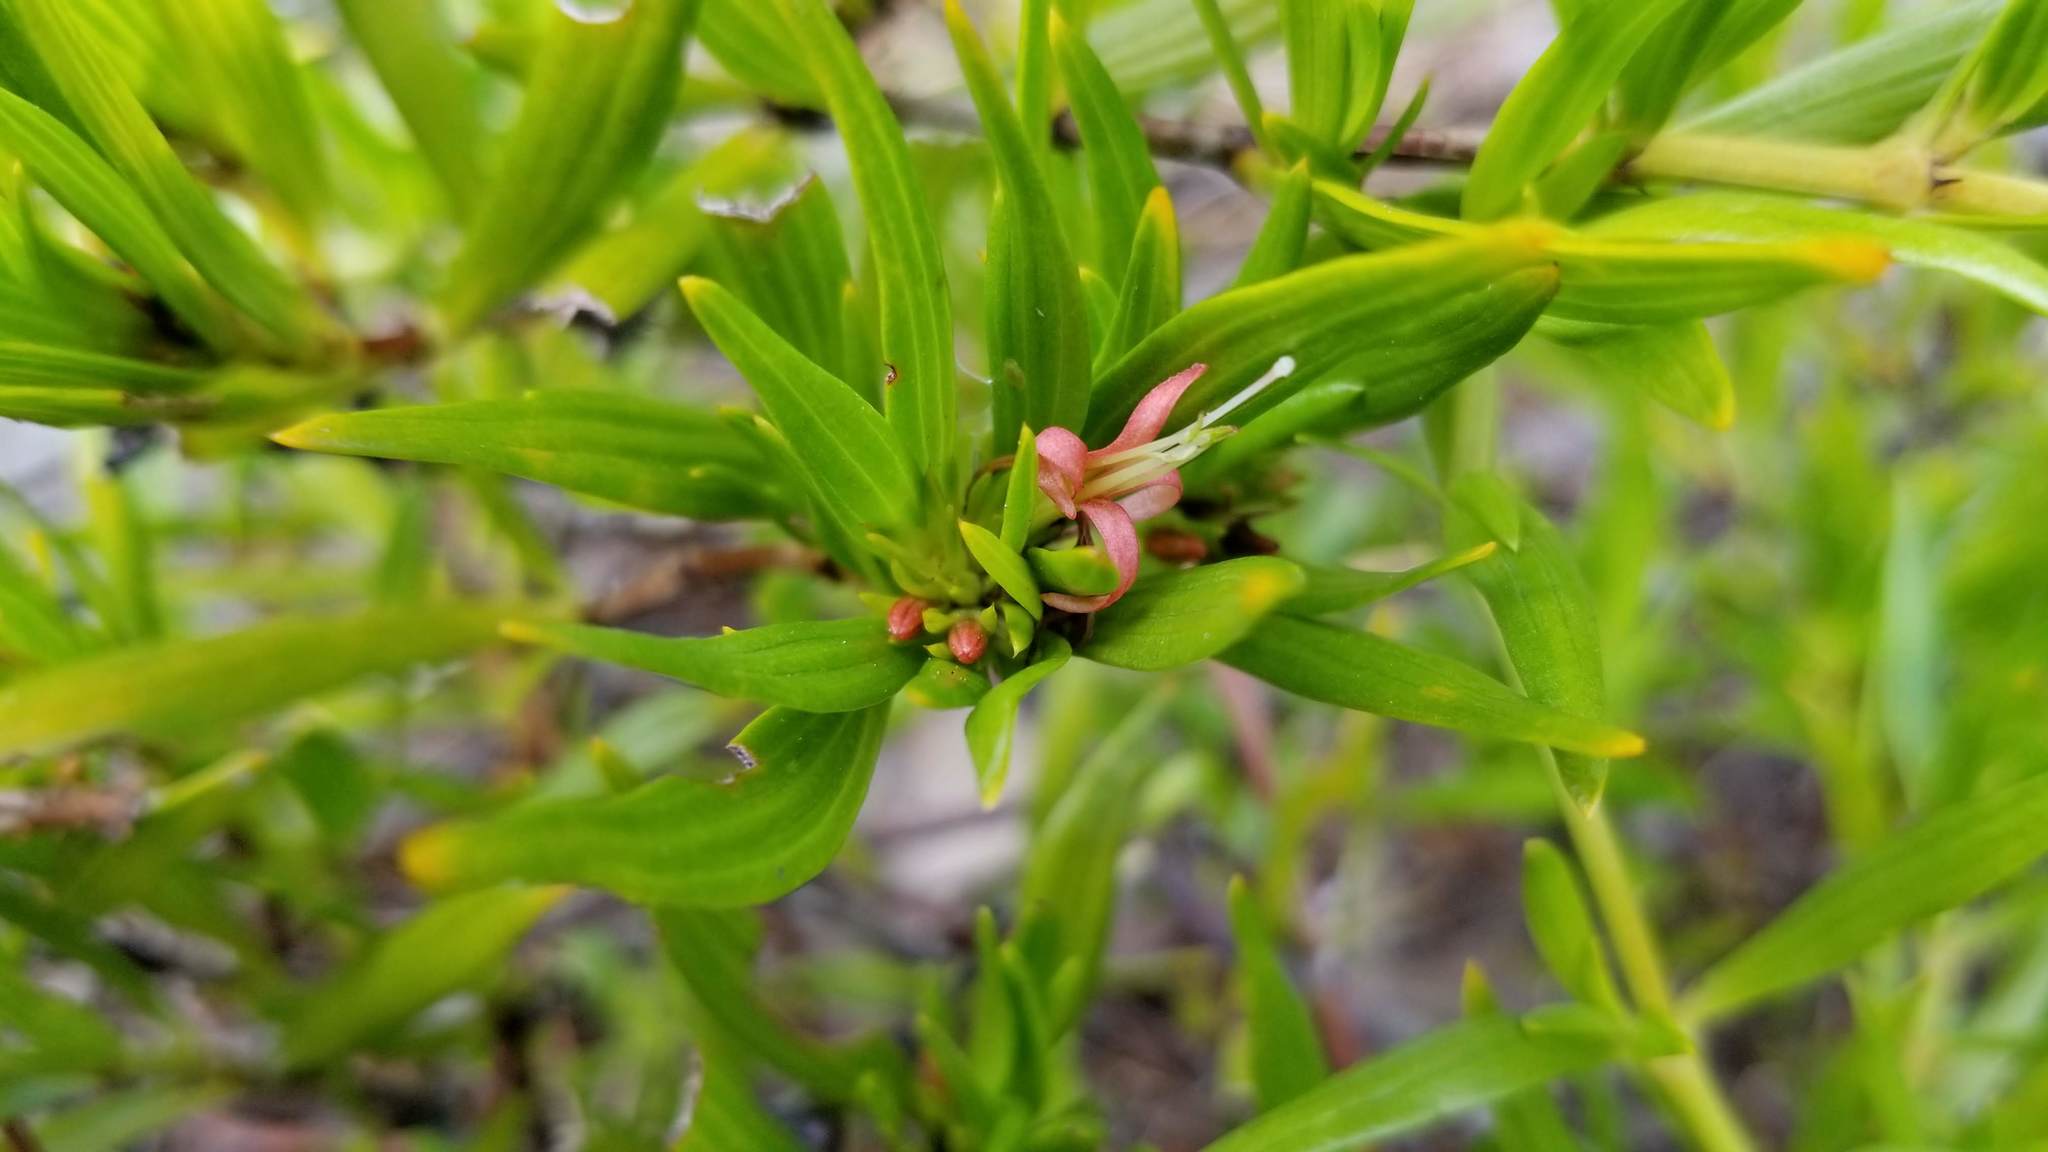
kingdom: Plantae
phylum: Tracheophyta
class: Magnoliopsida
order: Gentianales
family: Rubiaceae
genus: Ernodea
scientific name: Ernodea littoralis
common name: Beach creeper
